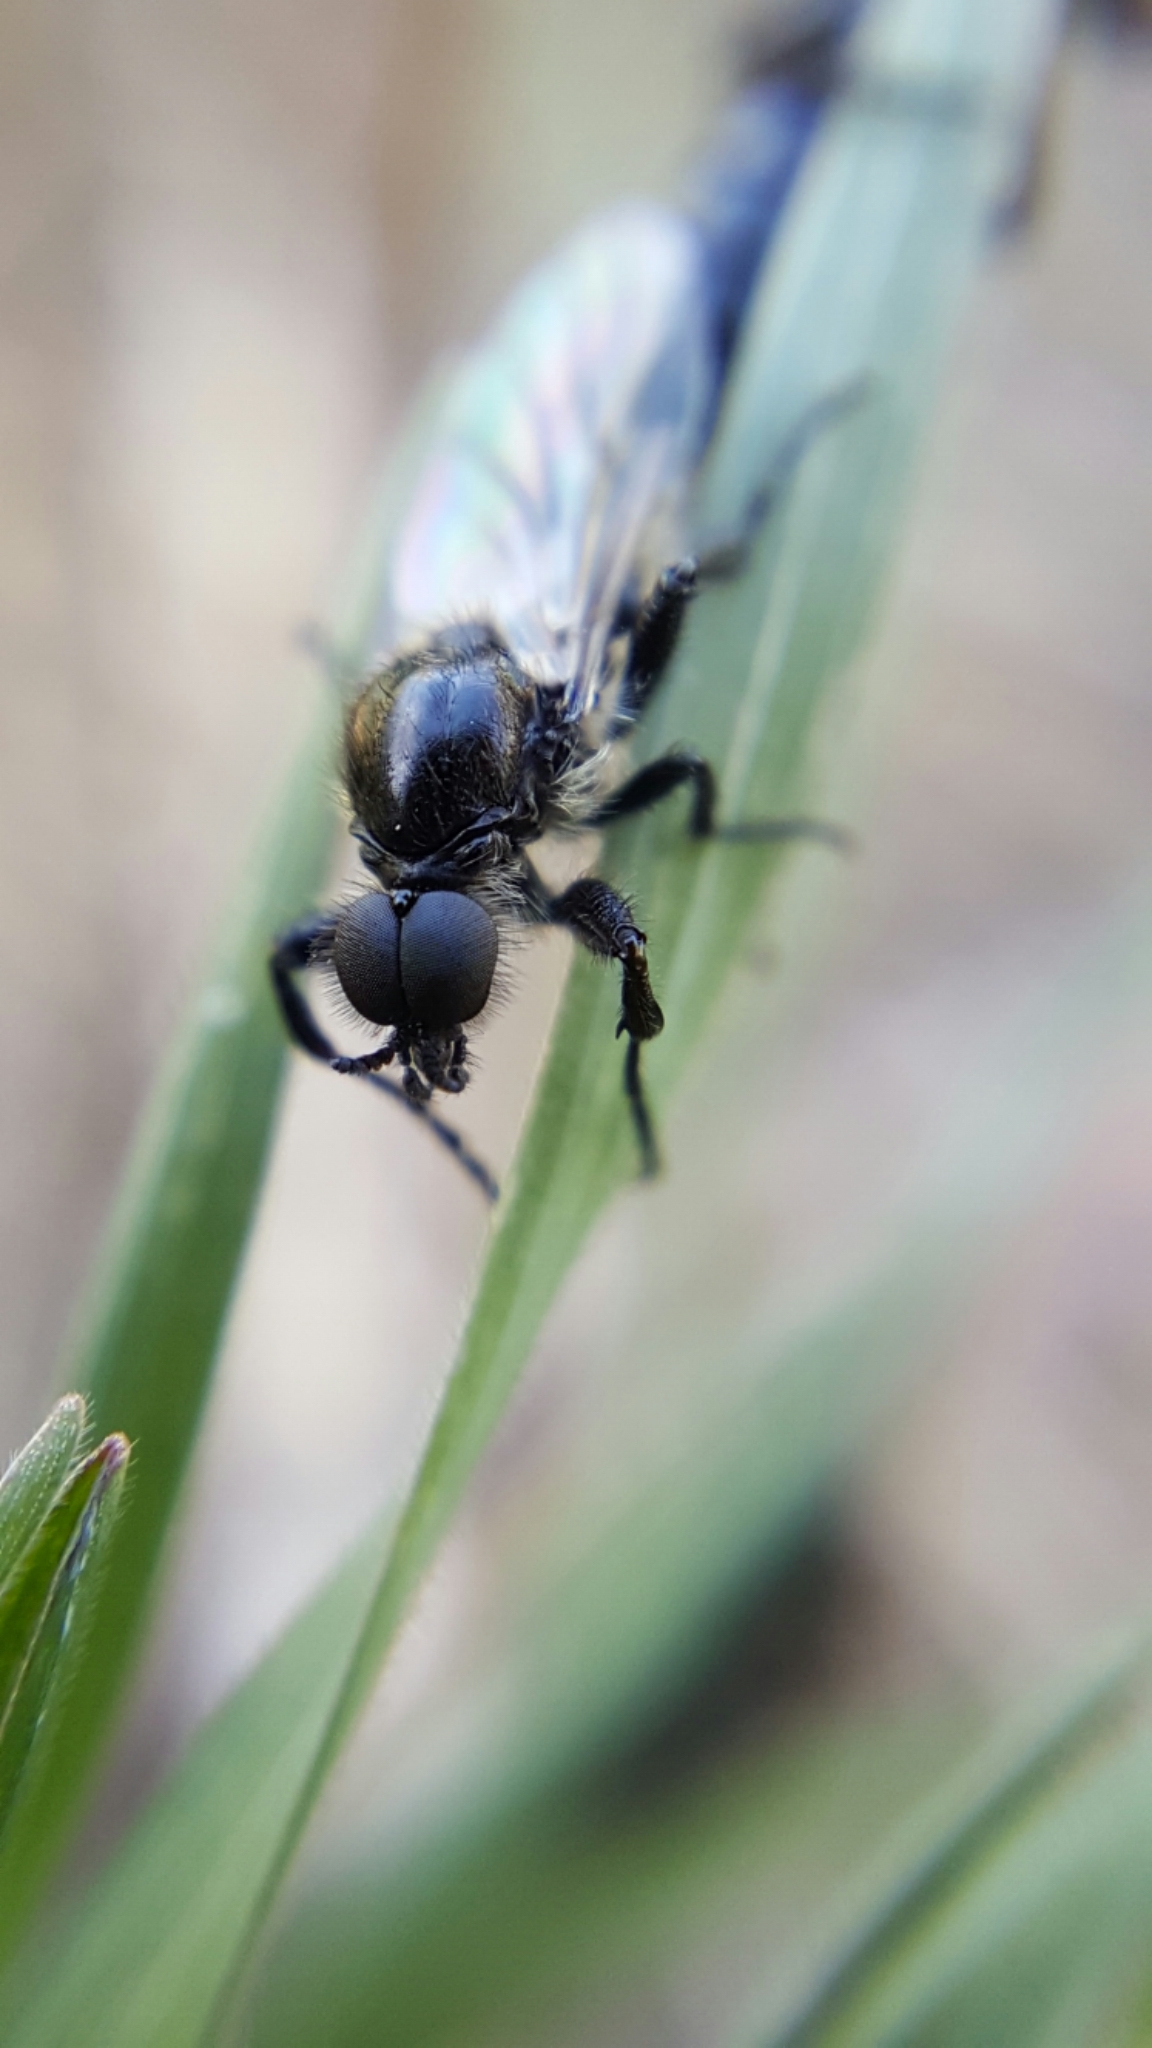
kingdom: Animalia
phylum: Arthropoda
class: Insecta
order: Diptera
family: Bibionidae
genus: Bibio
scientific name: Bibio albipennis
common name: White-winged march fly
